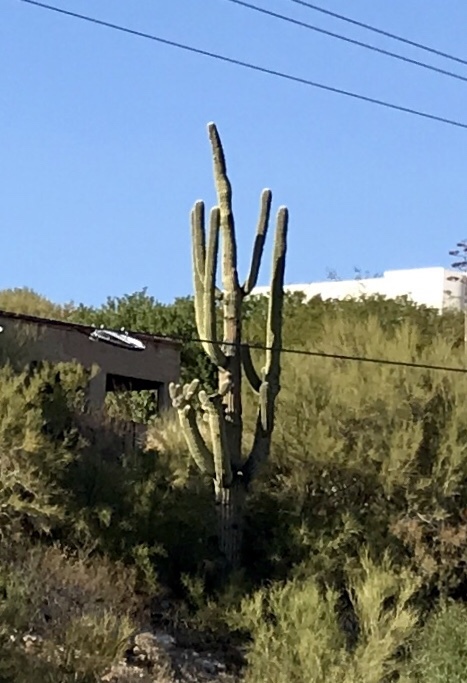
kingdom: Plantae
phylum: Tracheophyta
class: Magnoliopsida
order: Caryophyllales
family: Cactaceae
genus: Carnegiea
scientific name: Carnegiea gigantea
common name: Saguaro
